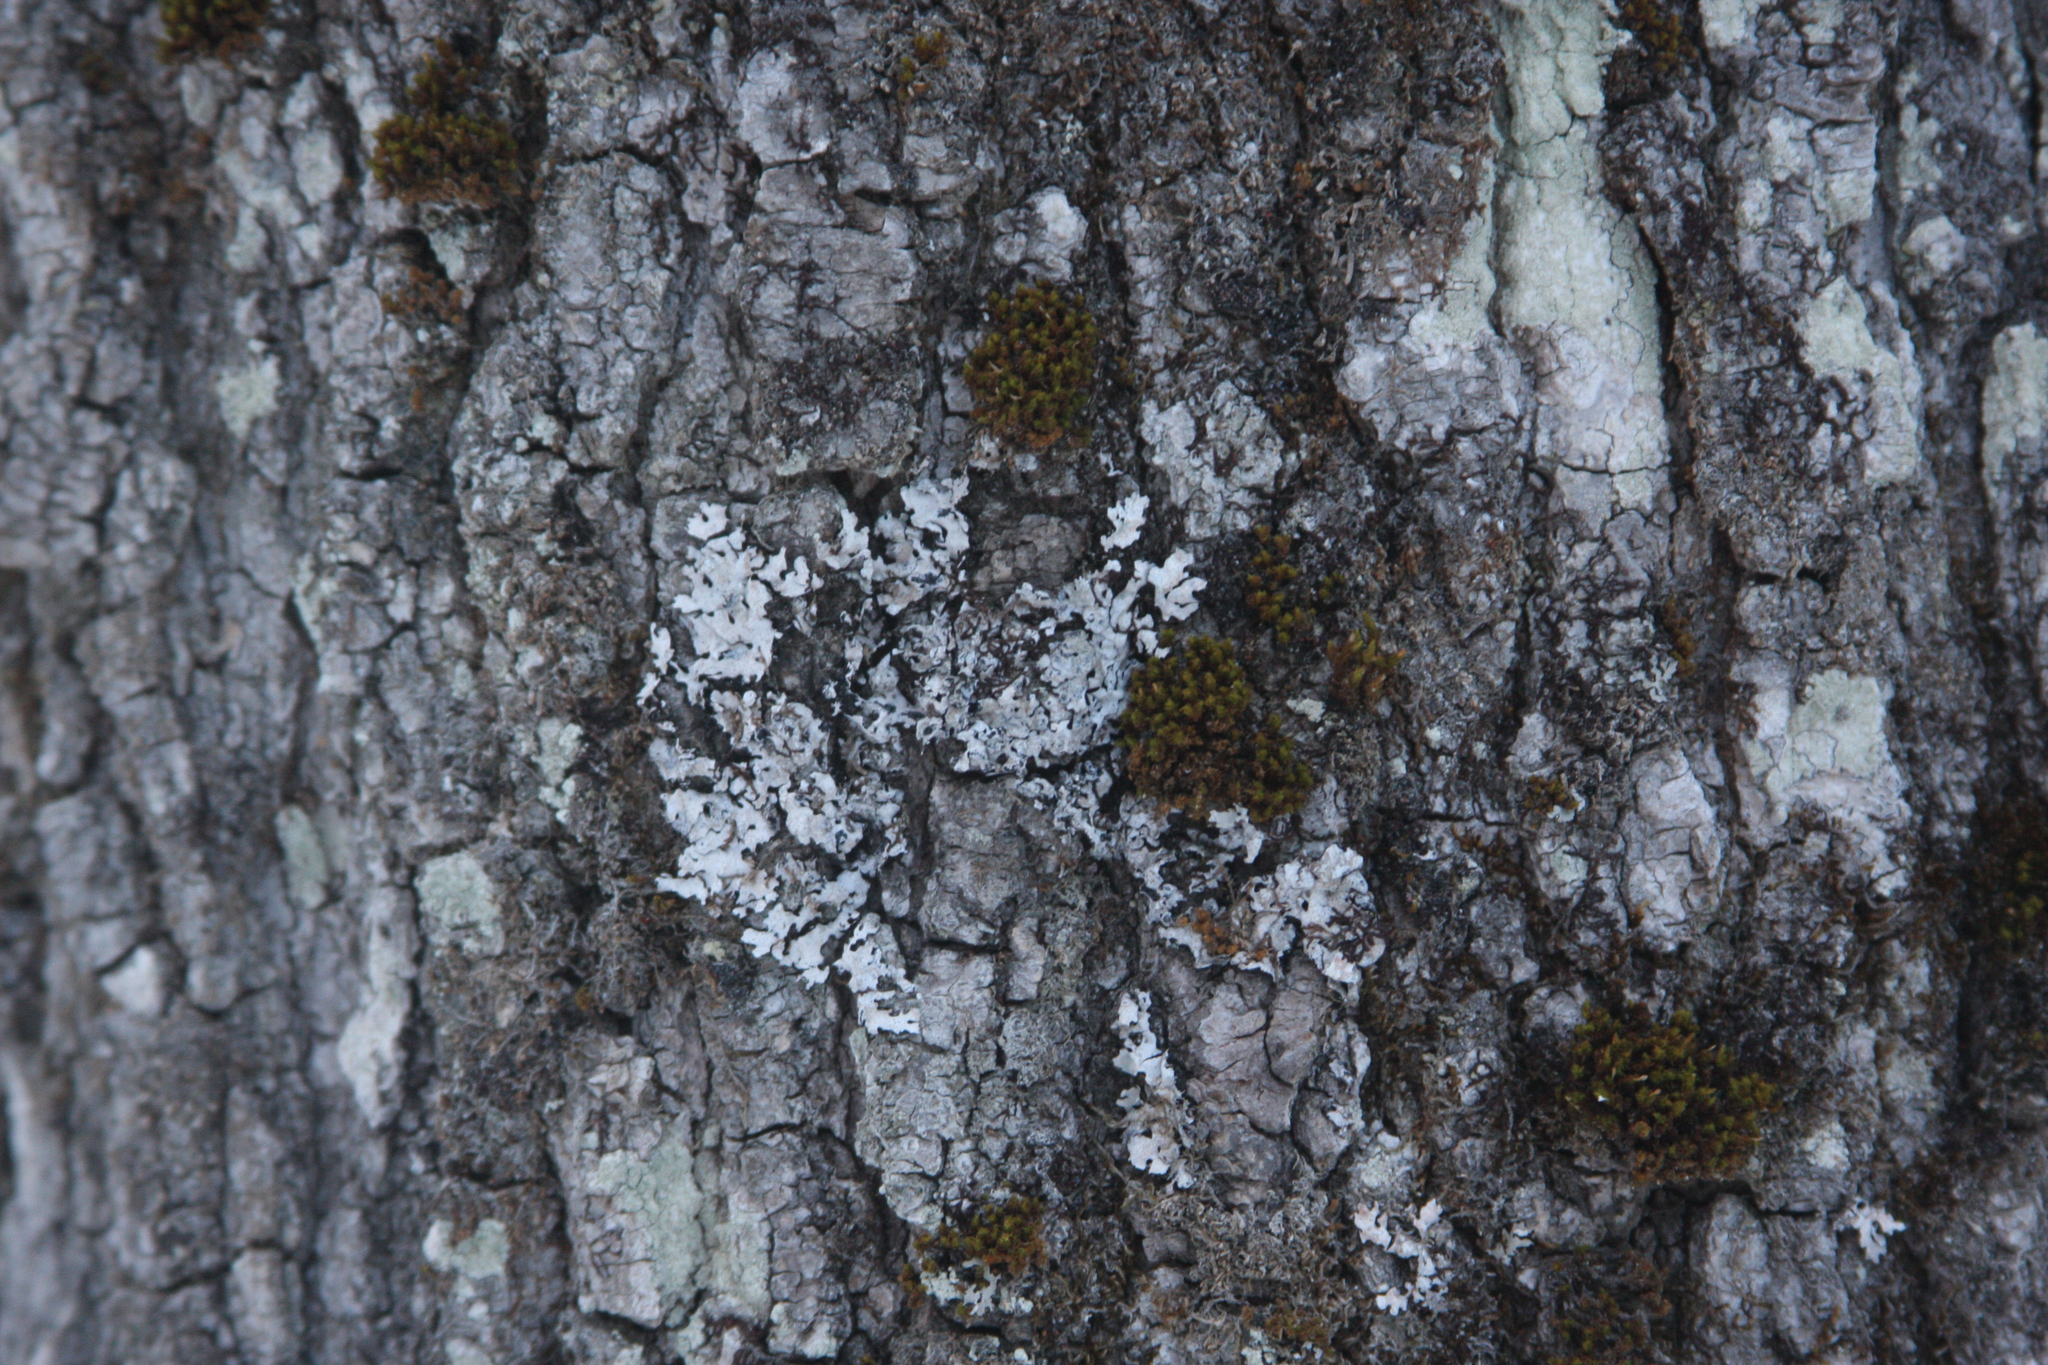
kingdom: Plantae
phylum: Bryophyta
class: Bryopsida
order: Orthotrichales
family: Orthotrichaceae
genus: Ulota
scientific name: Ulota crispa
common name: Crisped pincushion moss
